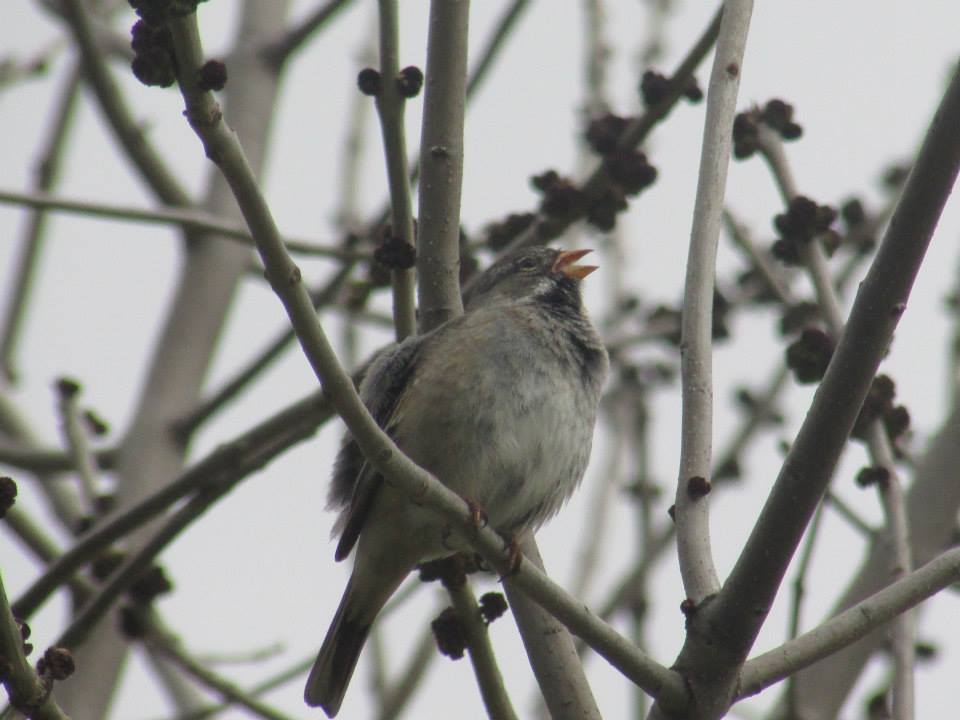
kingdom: Animalia
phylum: Chordata
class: Aves
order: Passeriformes
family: Thraupidae
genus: Rhopospina
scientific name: Rhopospina fruticeti
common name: Mourning sierra finch
